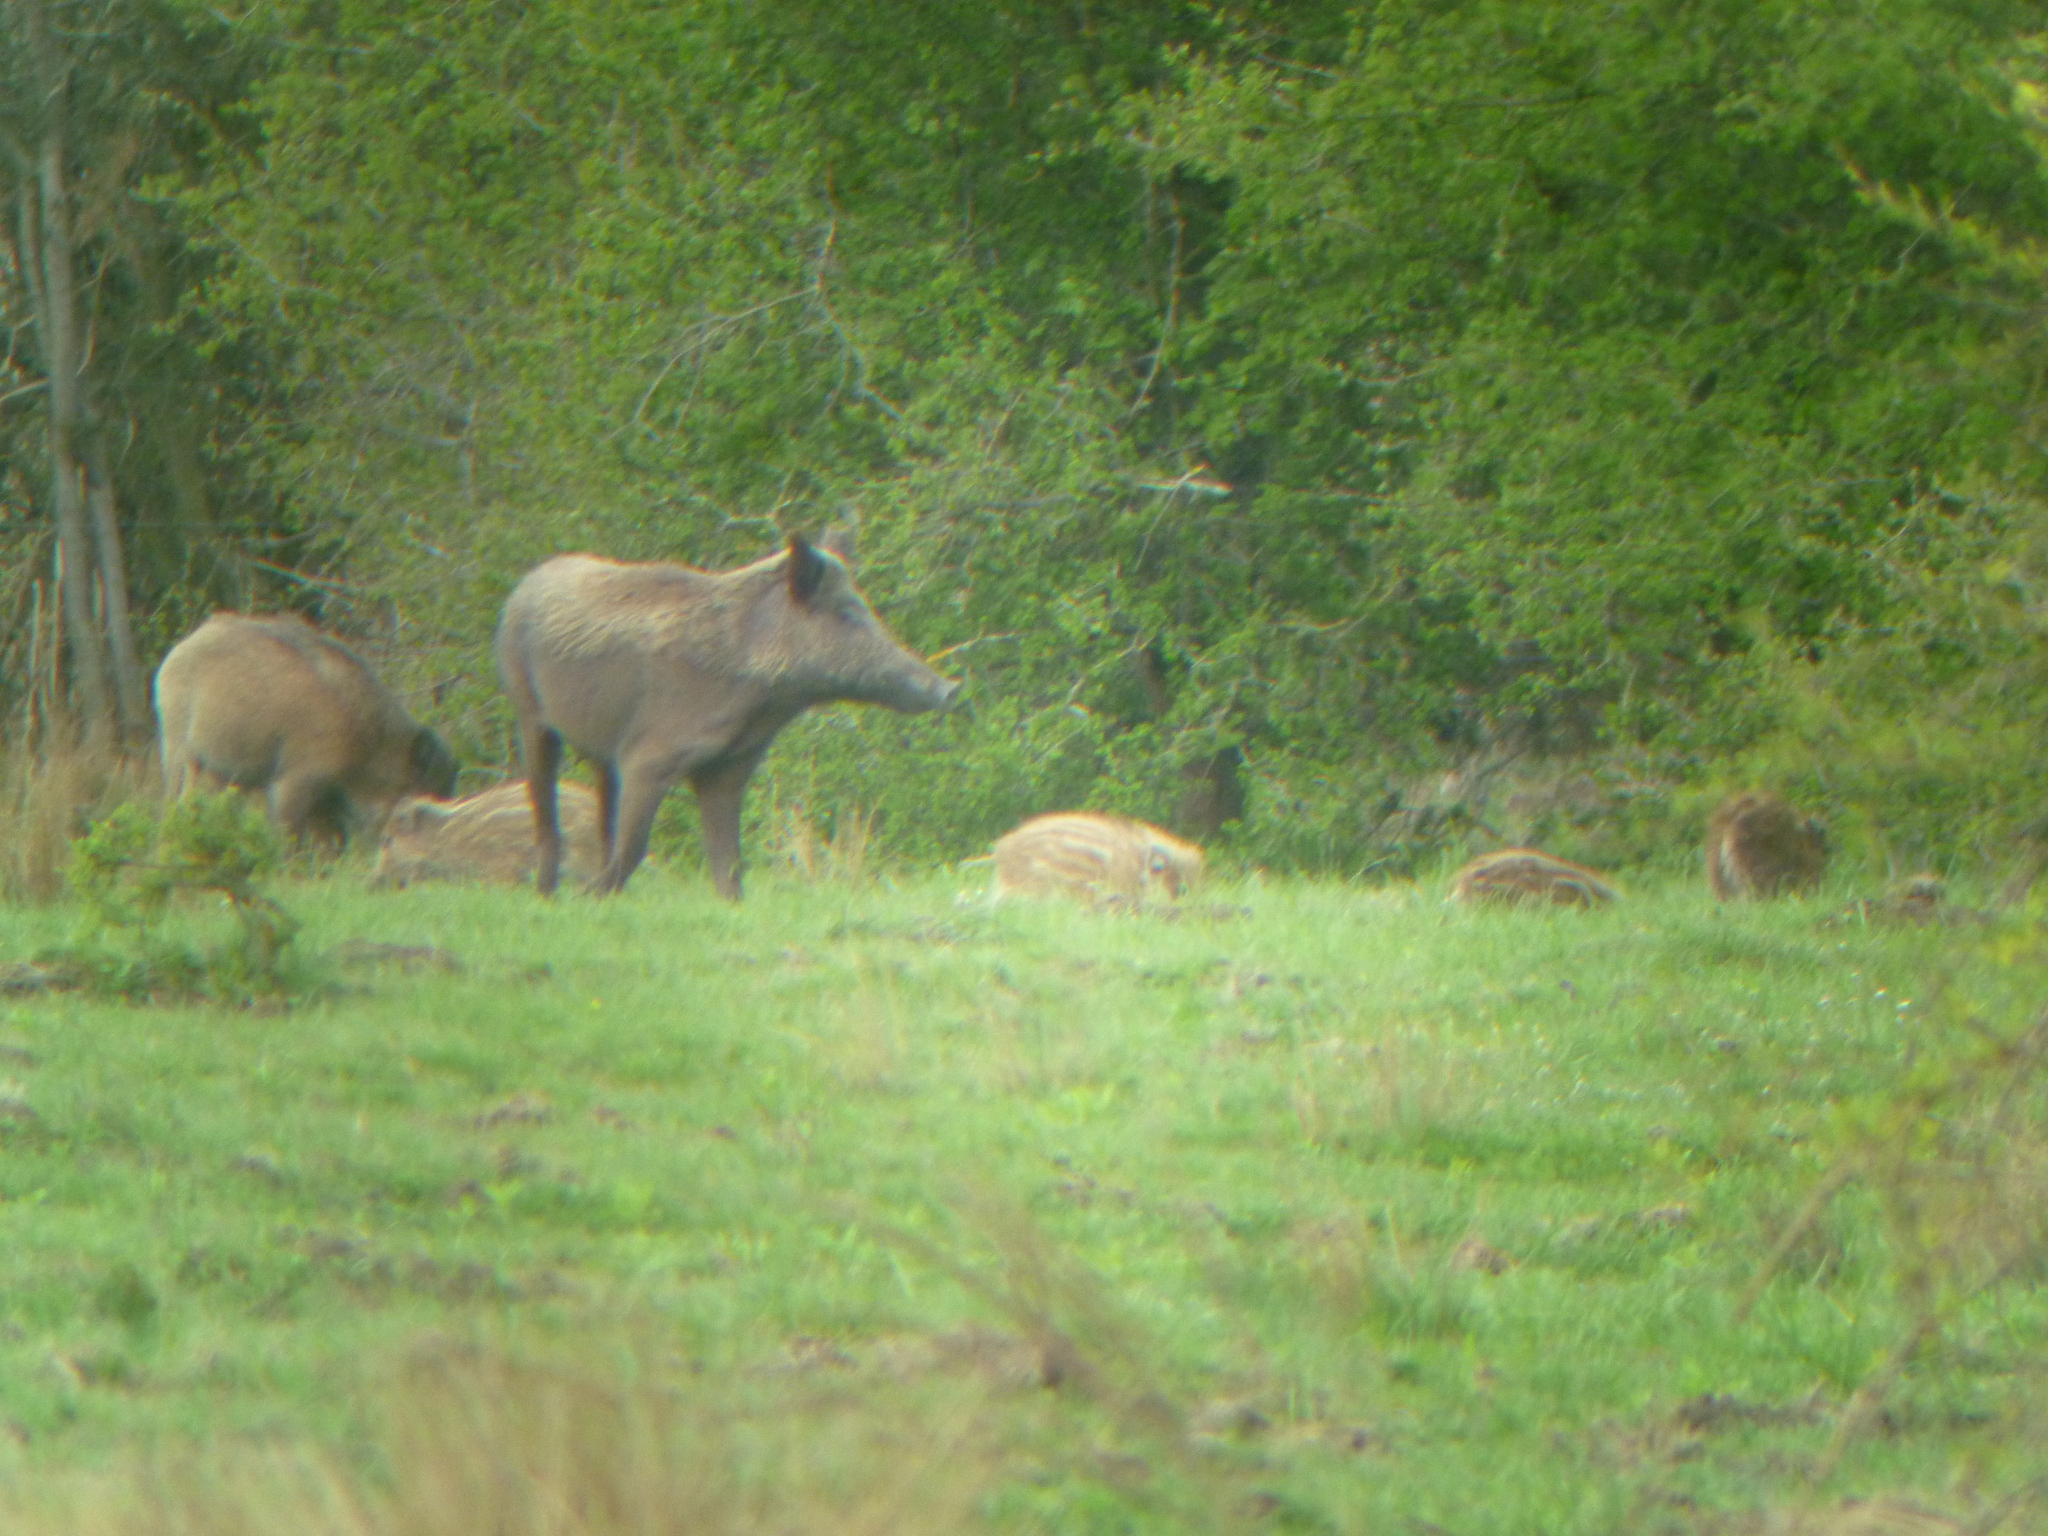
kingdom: Animalia
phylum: Chordata
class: Mammalia
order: Artiodactyla
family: Suidae
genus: Sus
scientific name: Sus scrofa
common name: Wild boar
